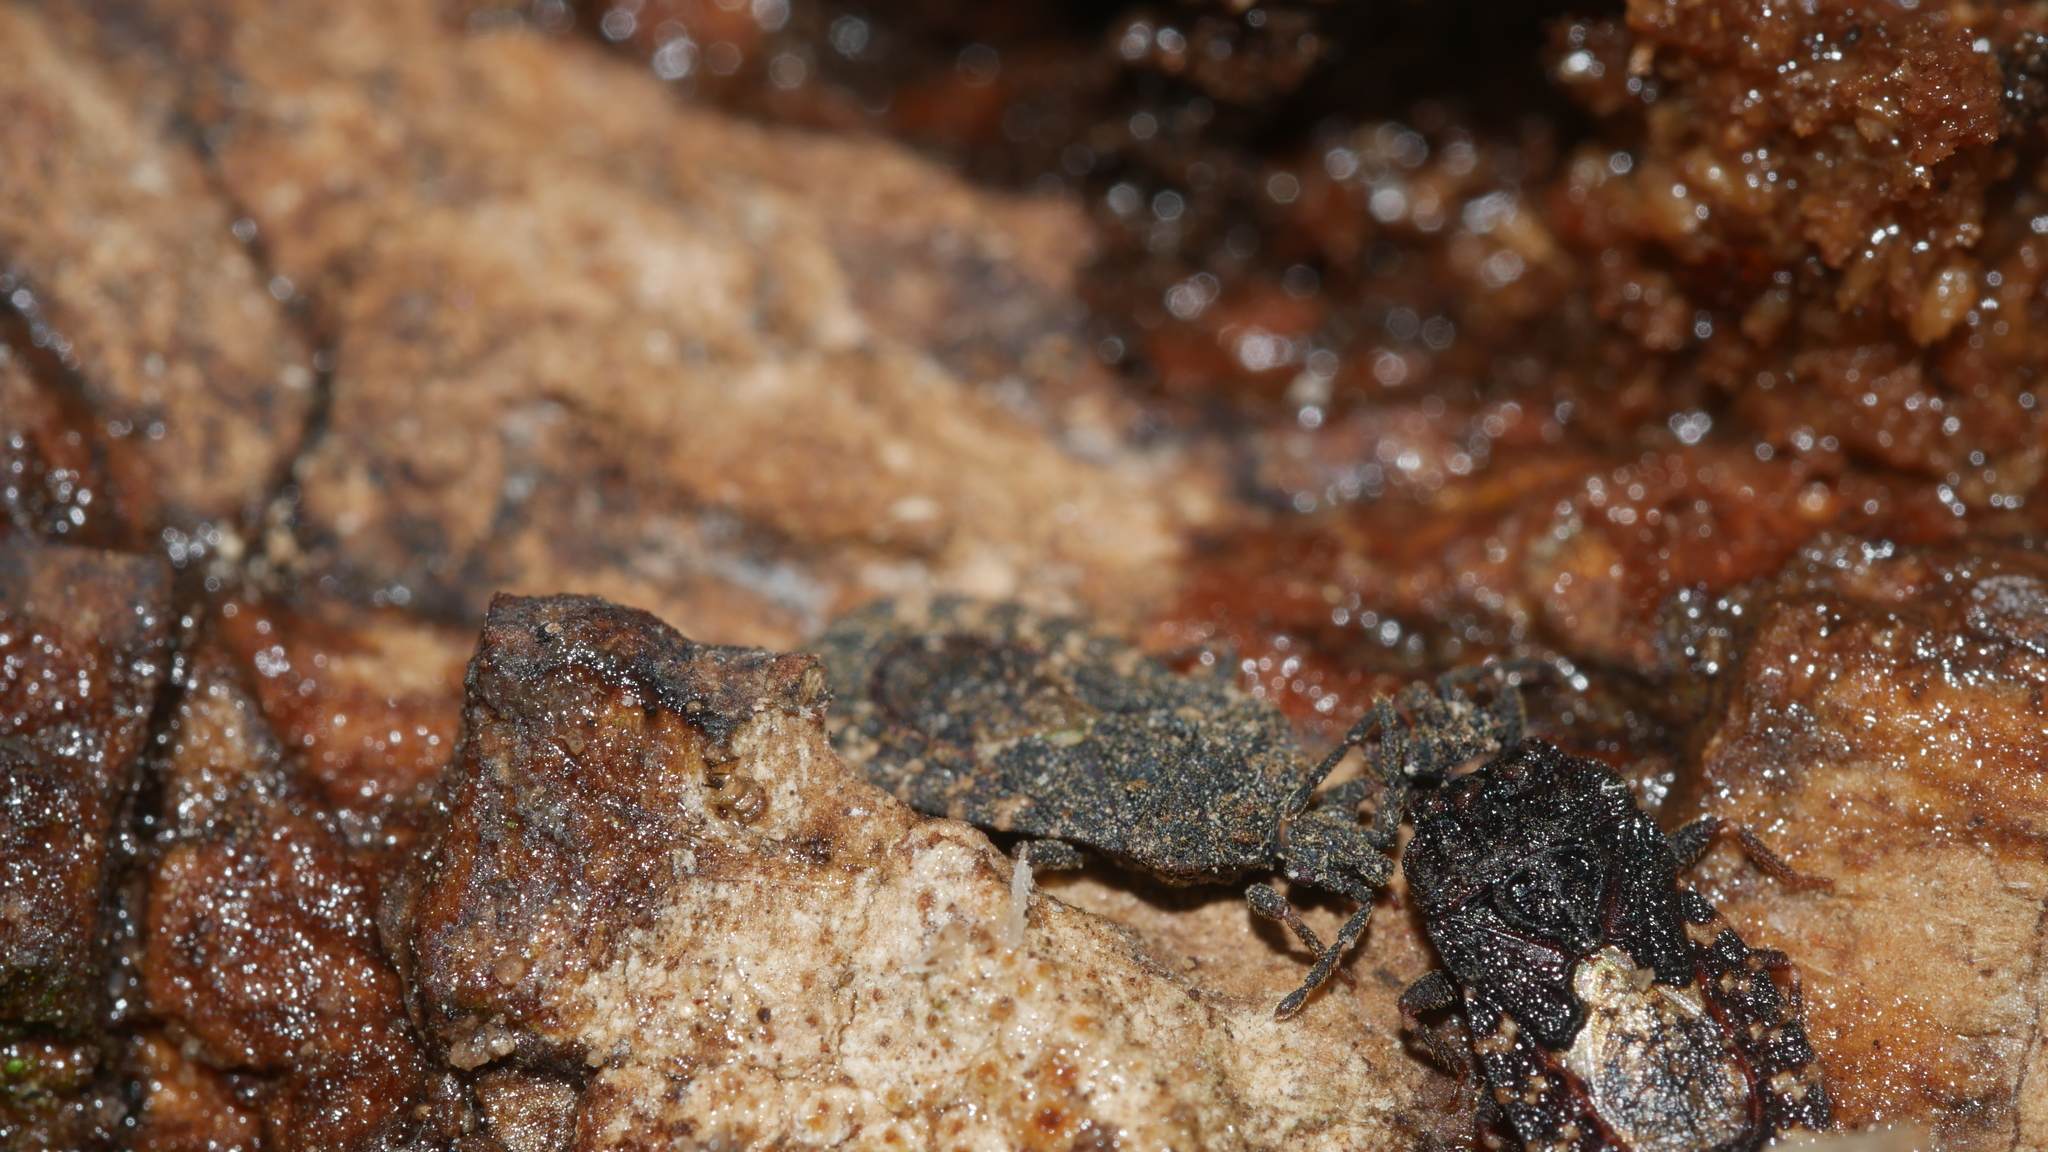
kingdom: Animalia
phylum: Arthropoda
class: Insecta
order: Hemiptera
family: Aradidae
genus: Mezira
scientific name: Mezira
